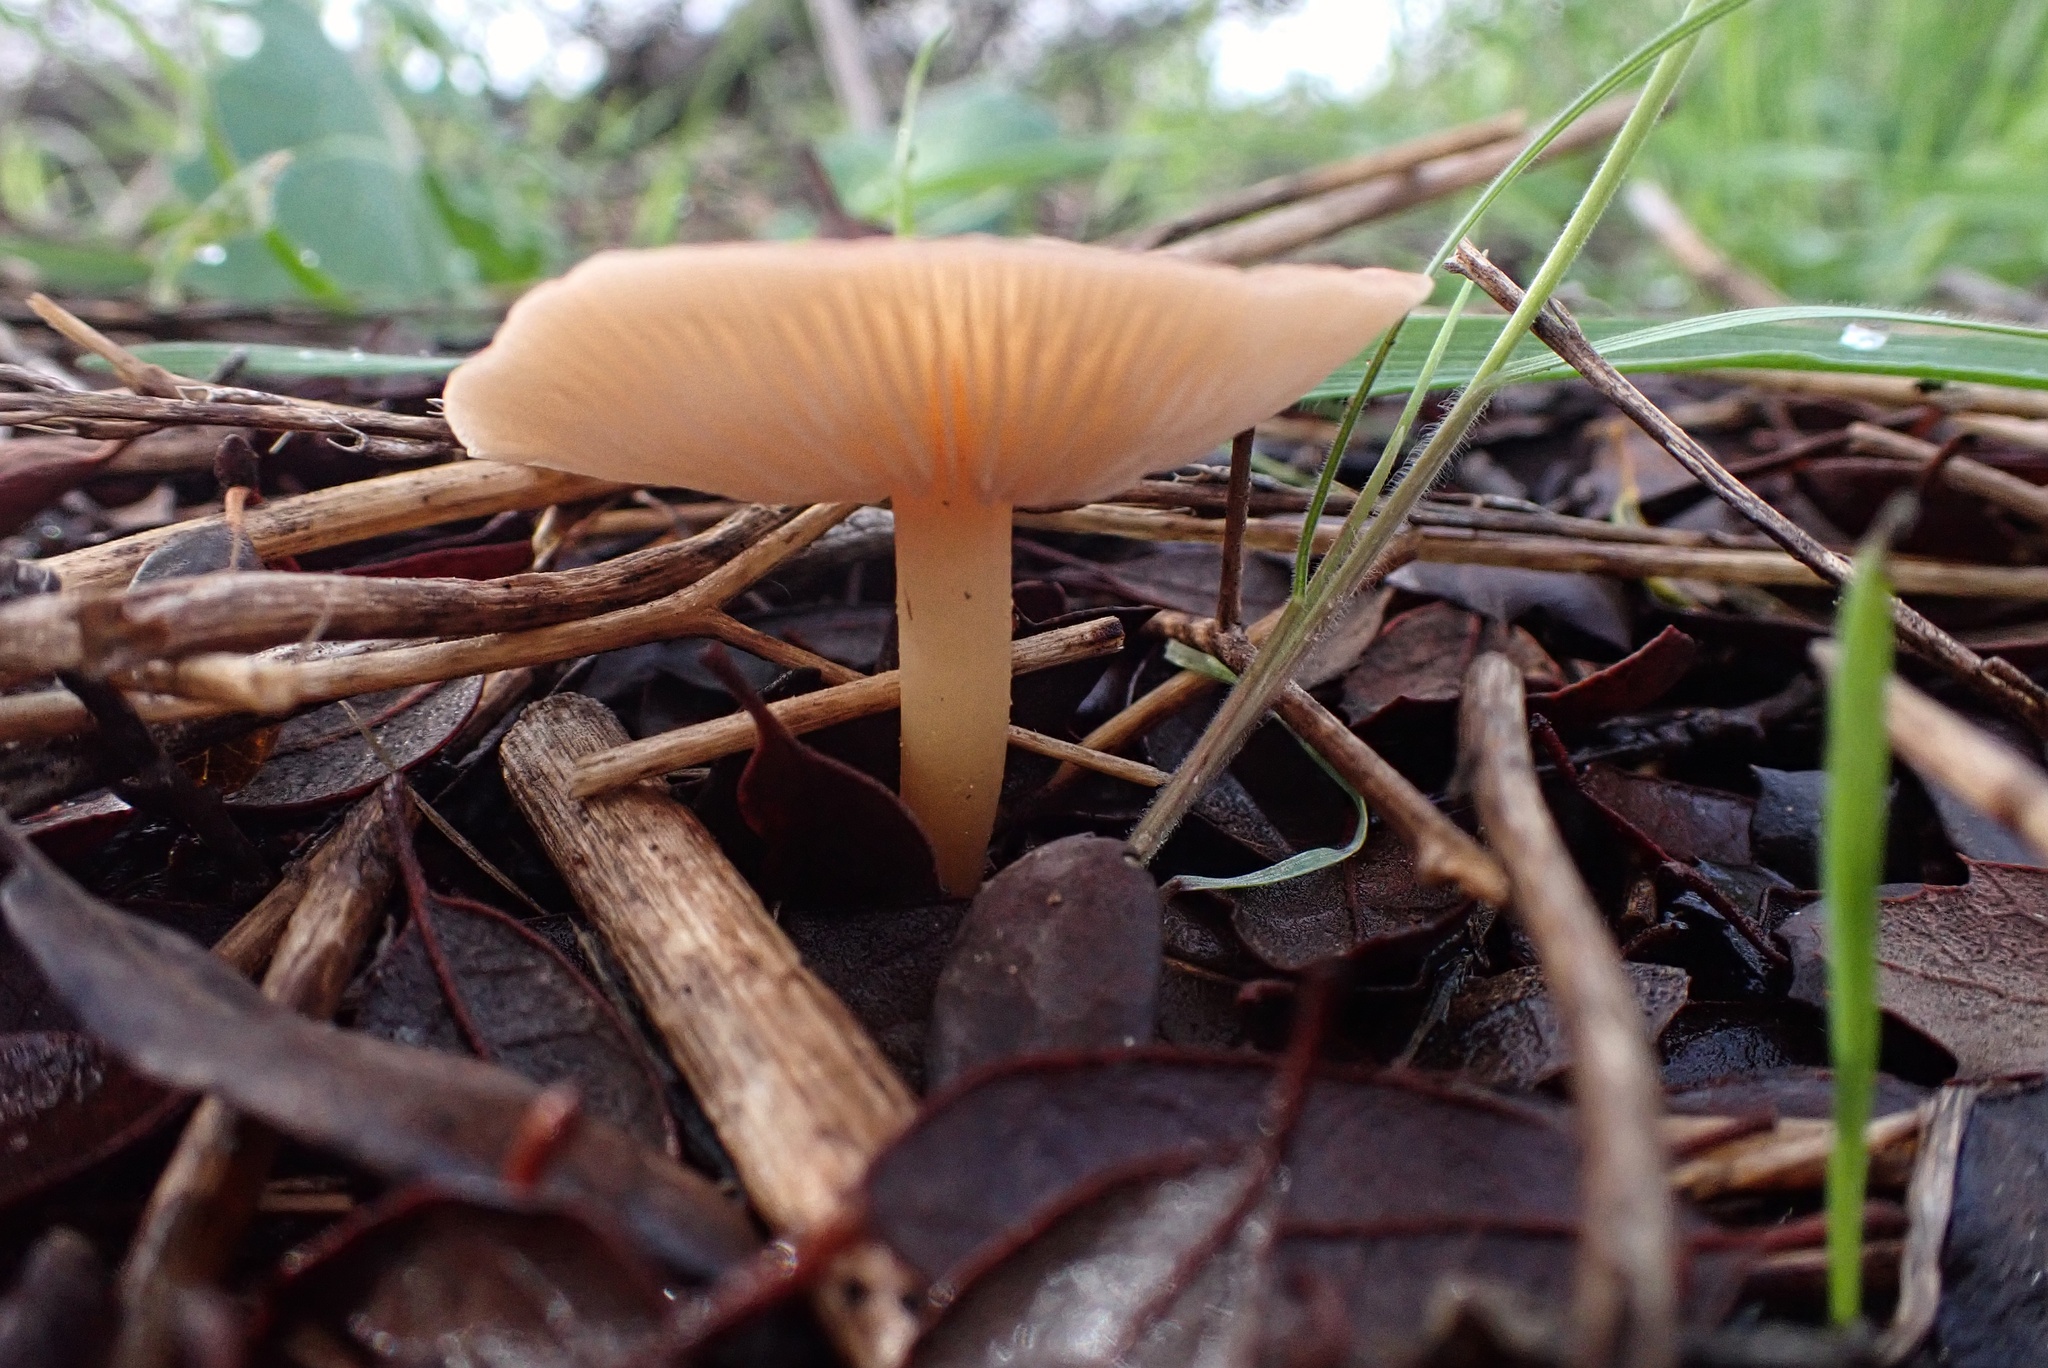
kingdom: Fungi
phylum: Basidiomycota
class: Agaricomycetes
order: Agaricales
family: Omphalotaceae
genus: Gymnopus
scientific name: Gymnopus dryophilus
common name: Penny top
